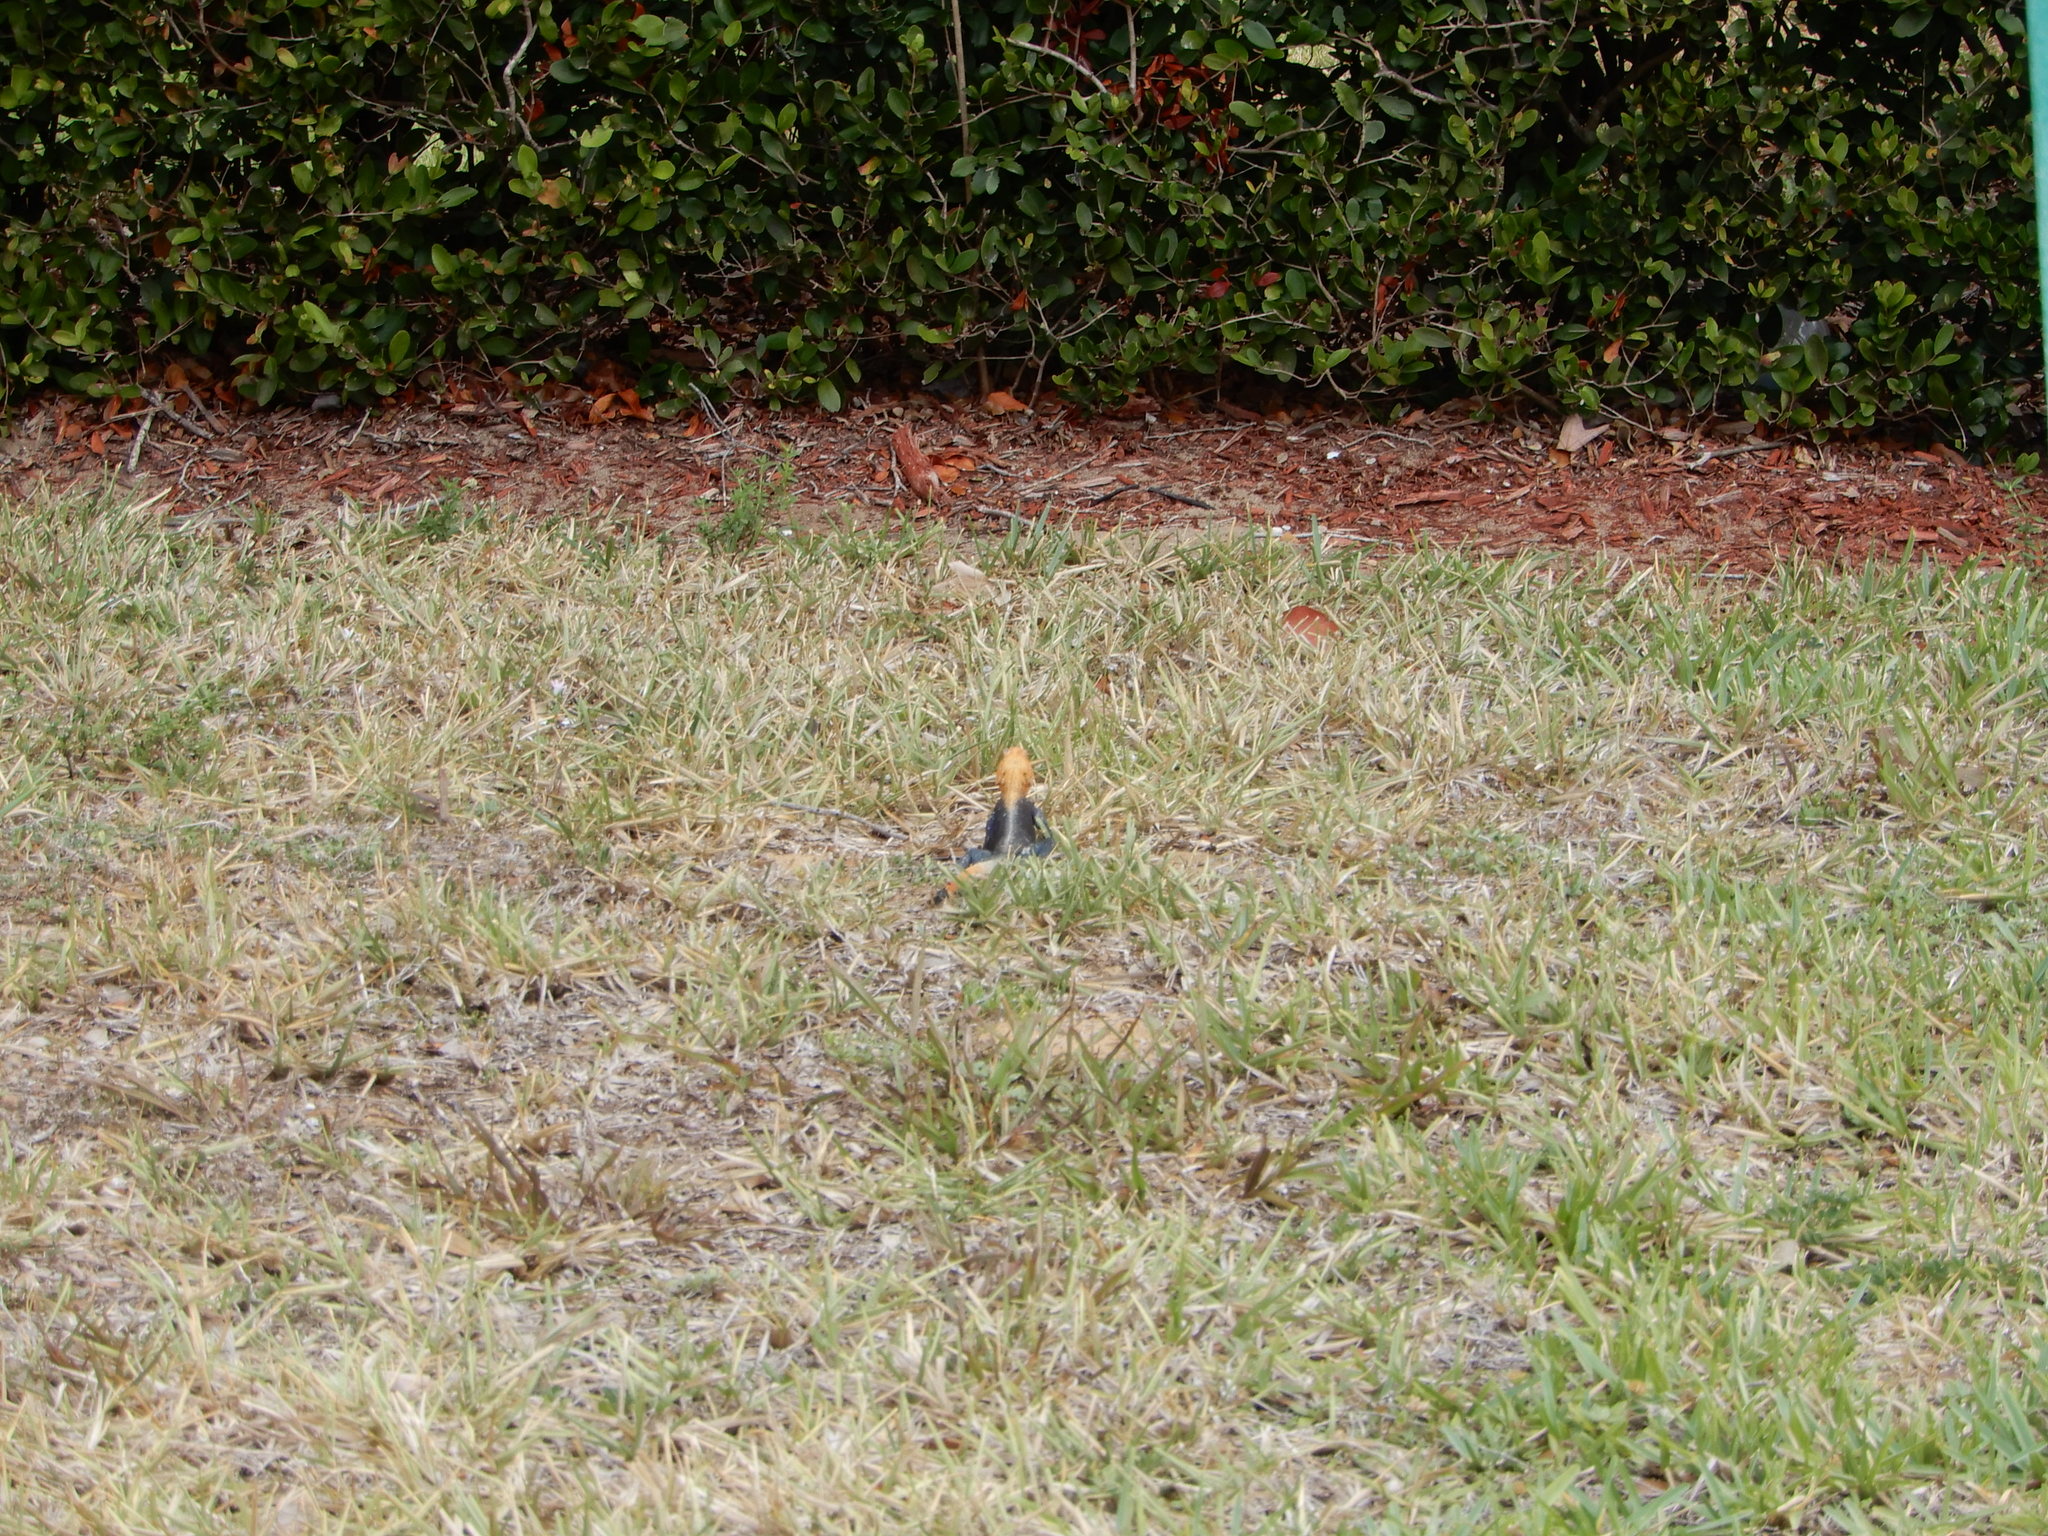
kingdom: Animalia
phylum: Chordata
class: Squamata
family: Agamidae
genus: Agama
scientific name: Agama picticauda
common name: Red-headed agama
